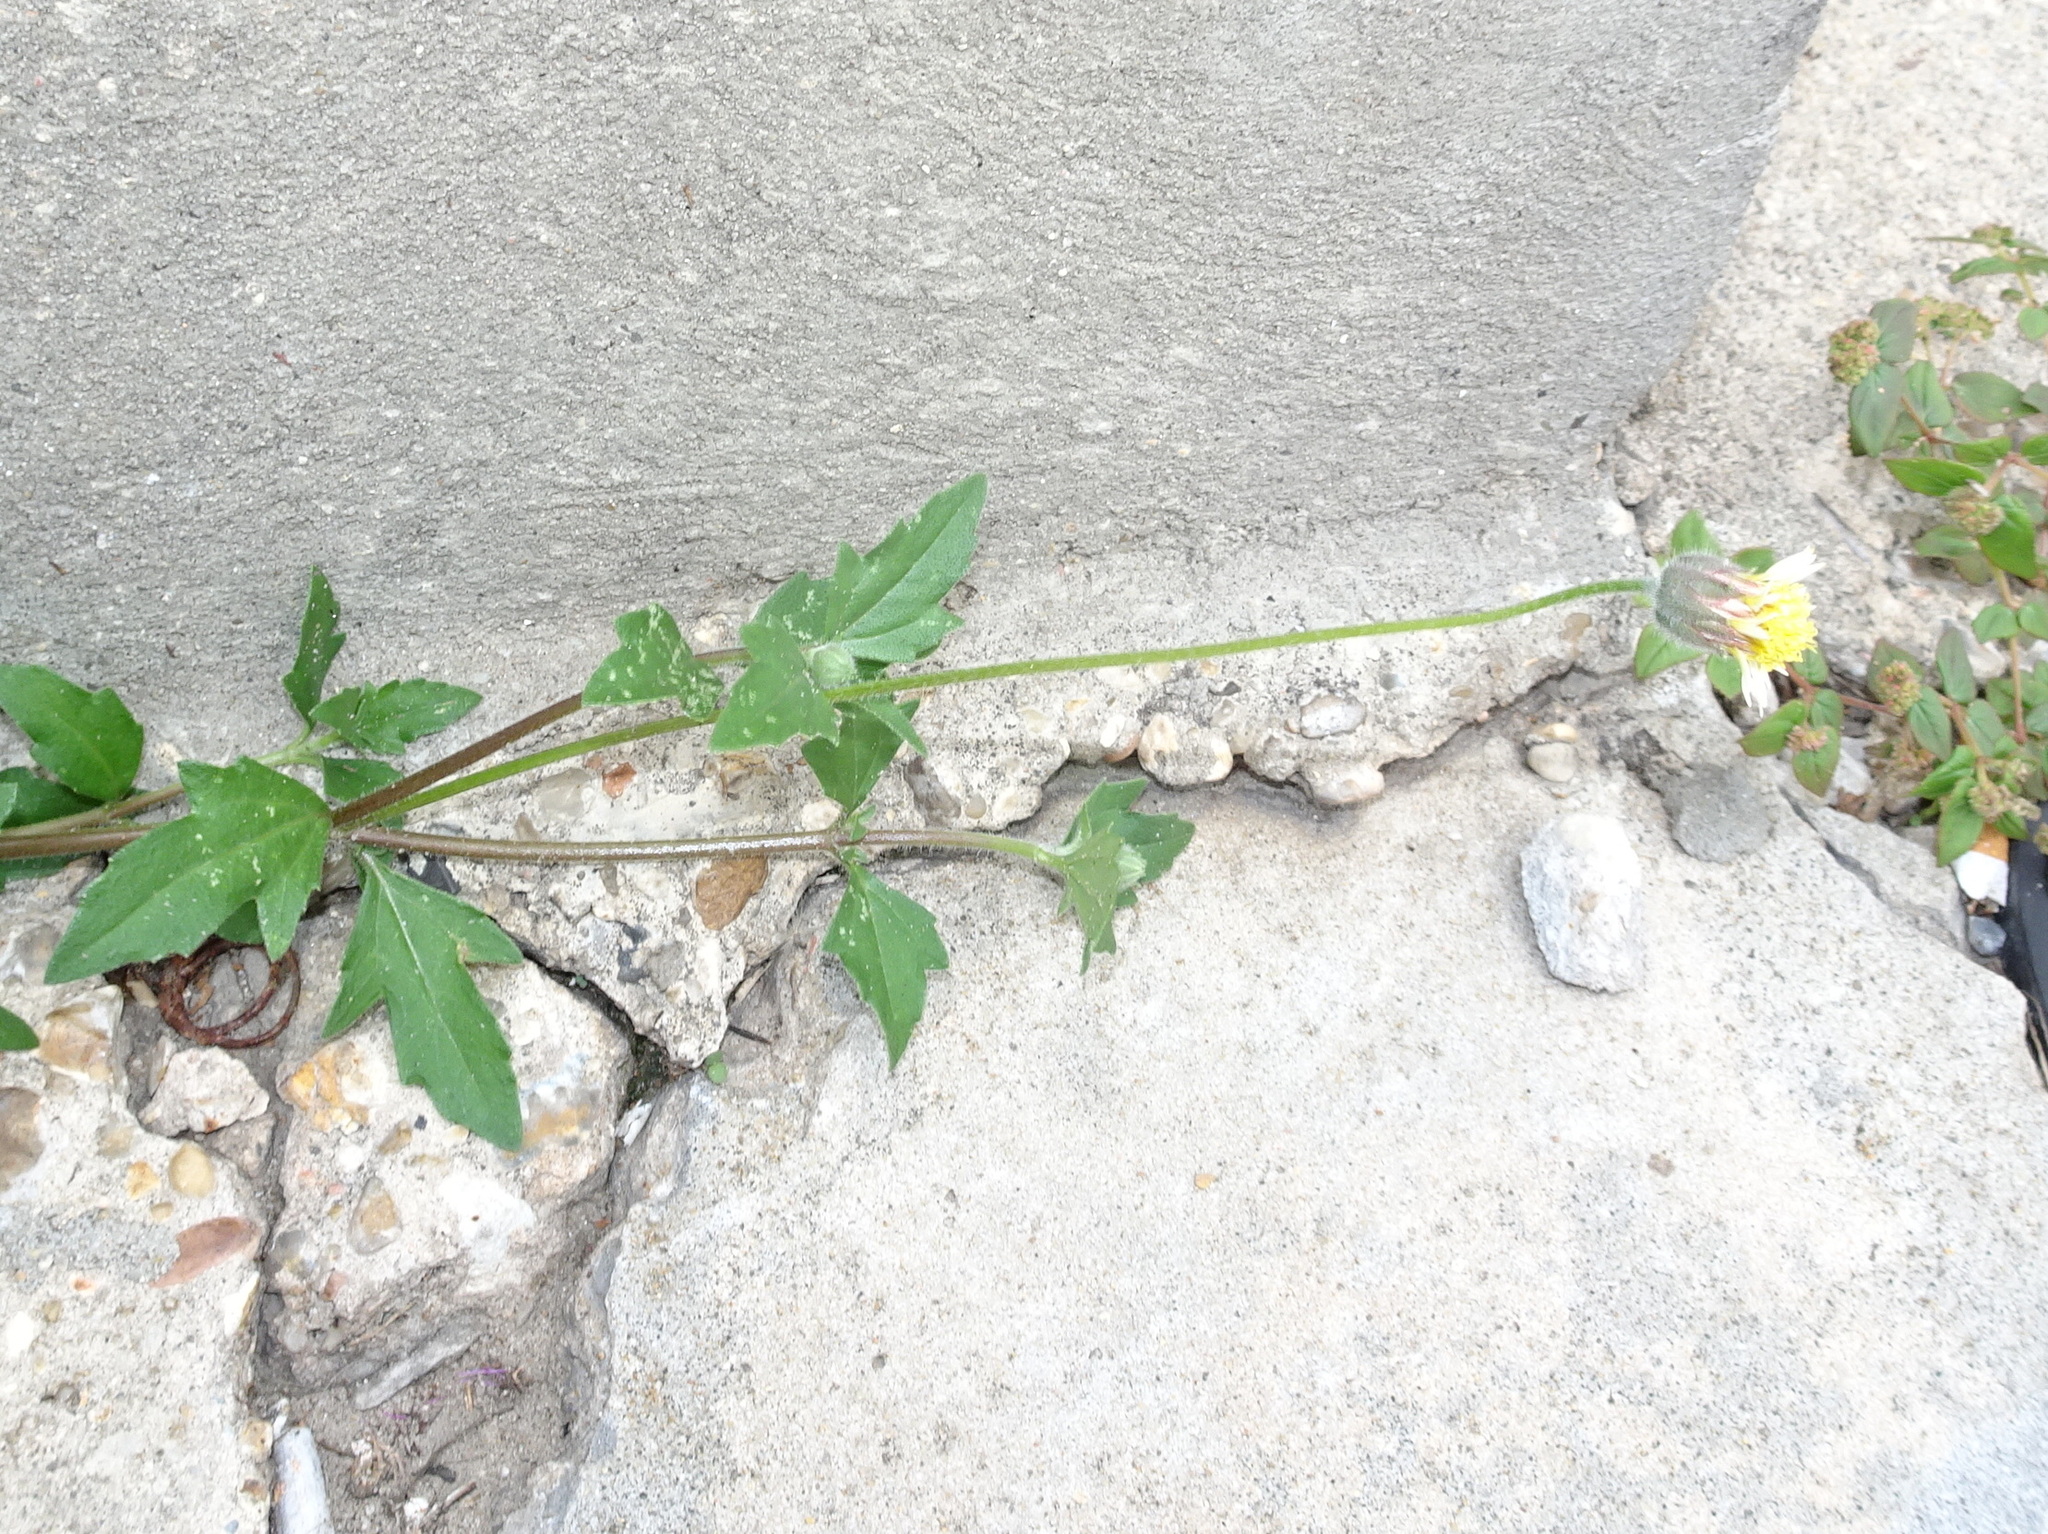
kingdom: Plantae
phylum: Tracheophyta
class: Magnoliopsida
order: Asterales
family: Asteraceae
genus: Tridax
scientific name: Tridax procumbens
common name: Coatbuttons
